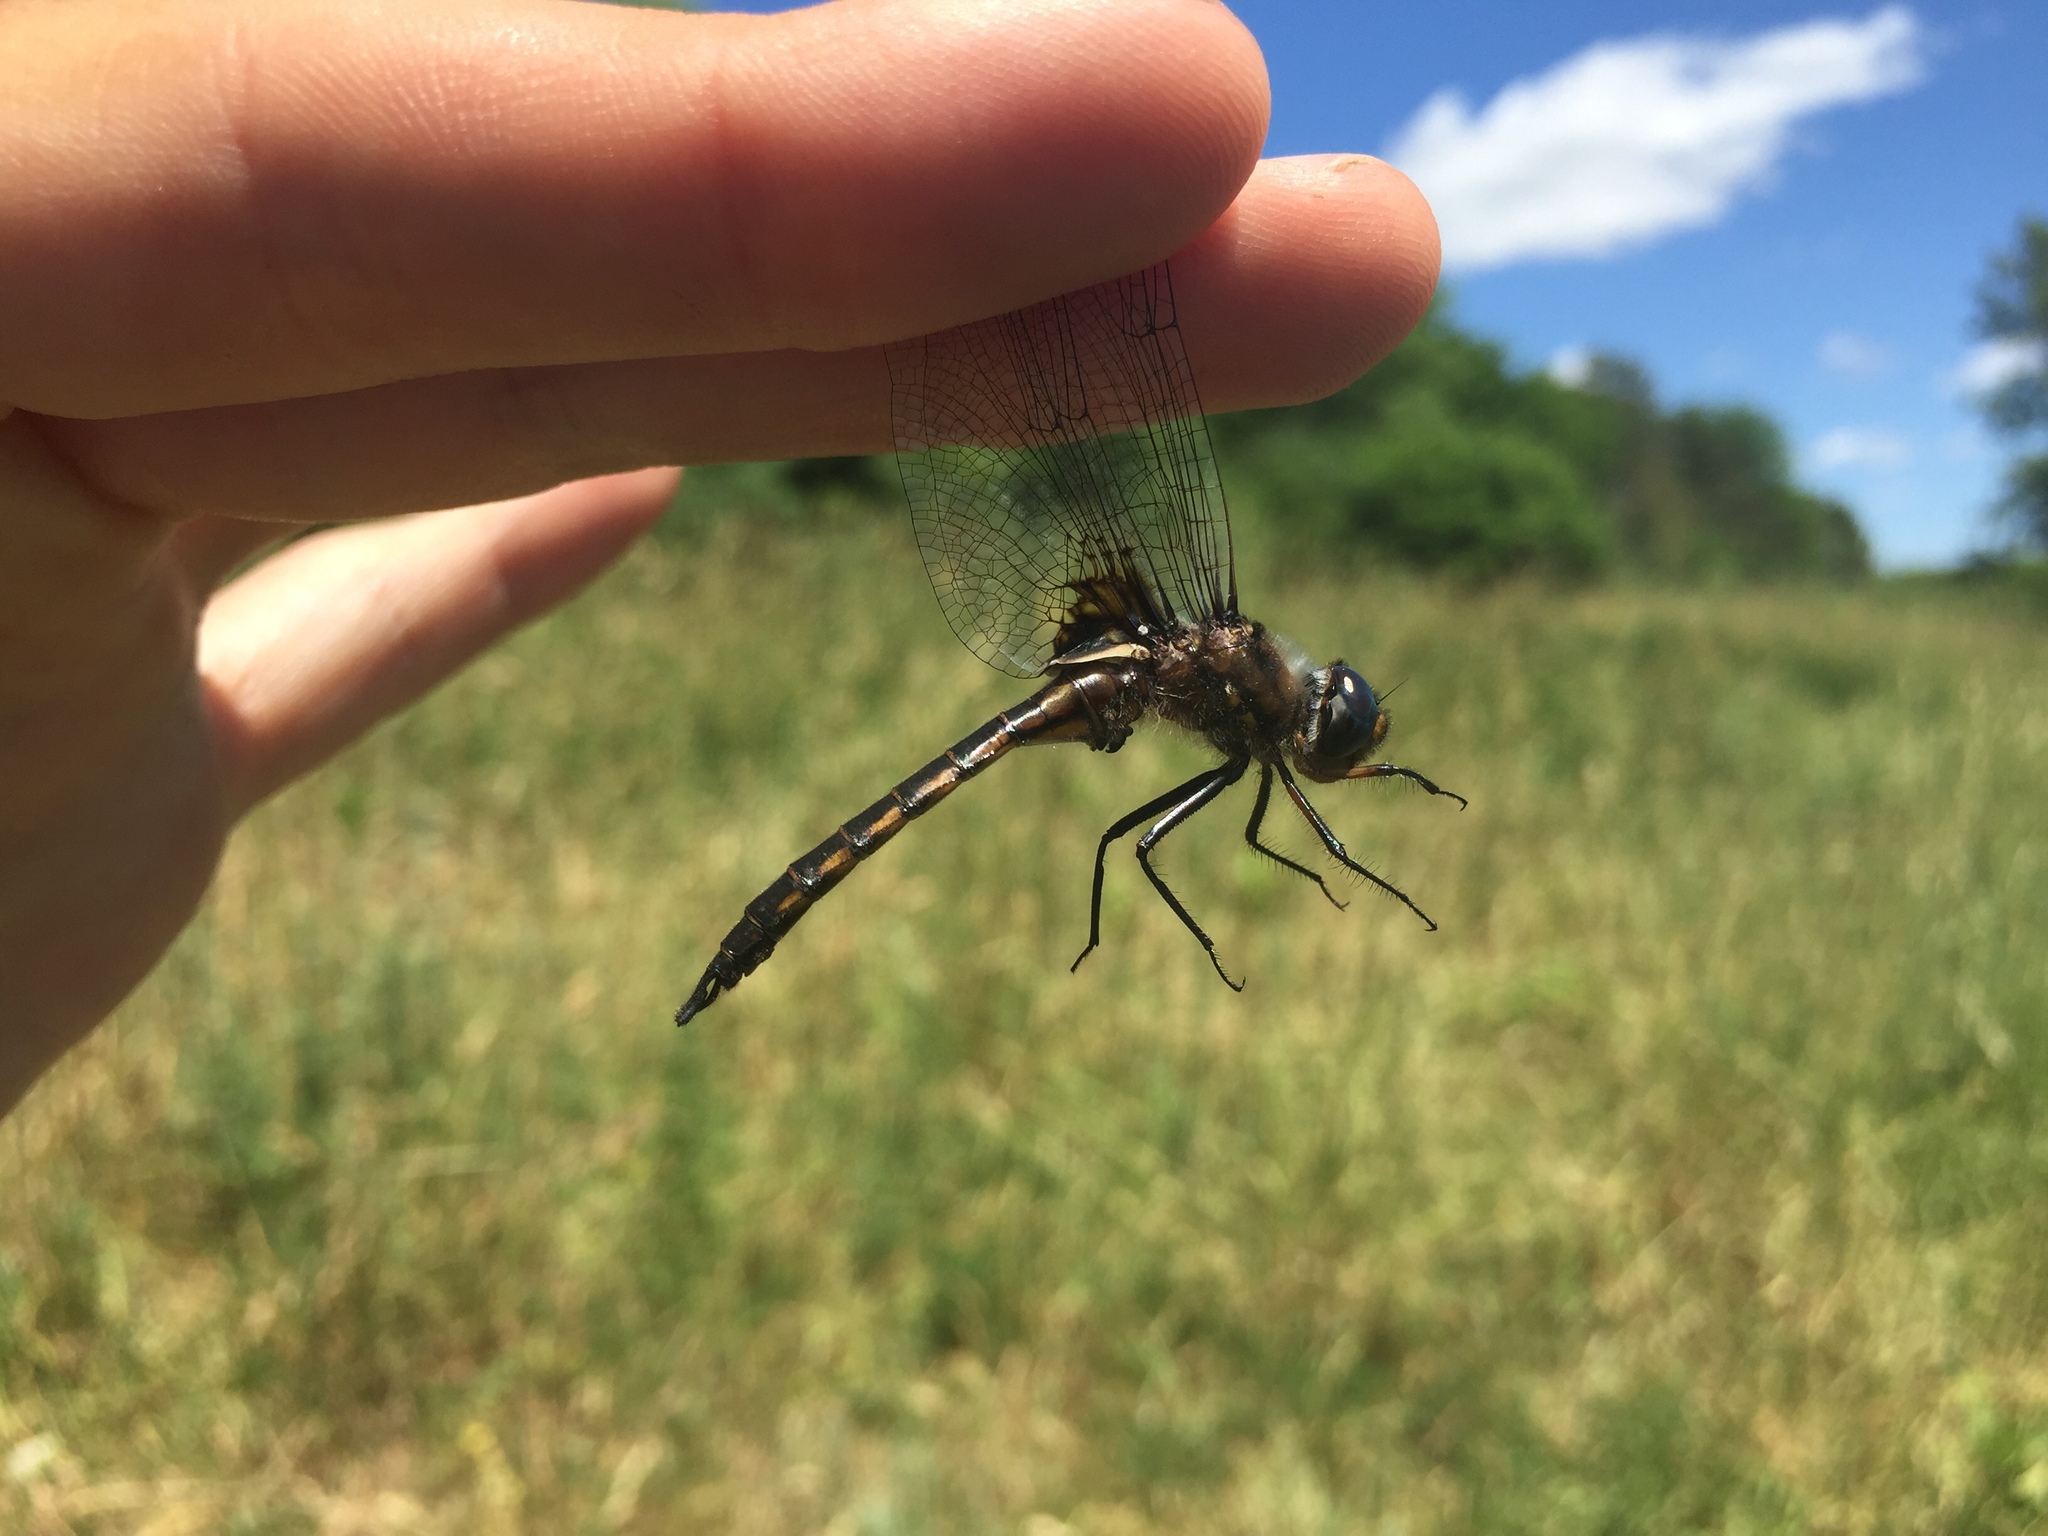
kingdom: Animalia
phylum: Arthropoda
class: Insecta
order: Odonata
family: Corduliidae
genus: Epitheca
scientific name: Epitheca cynosura
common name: Common baskettail
